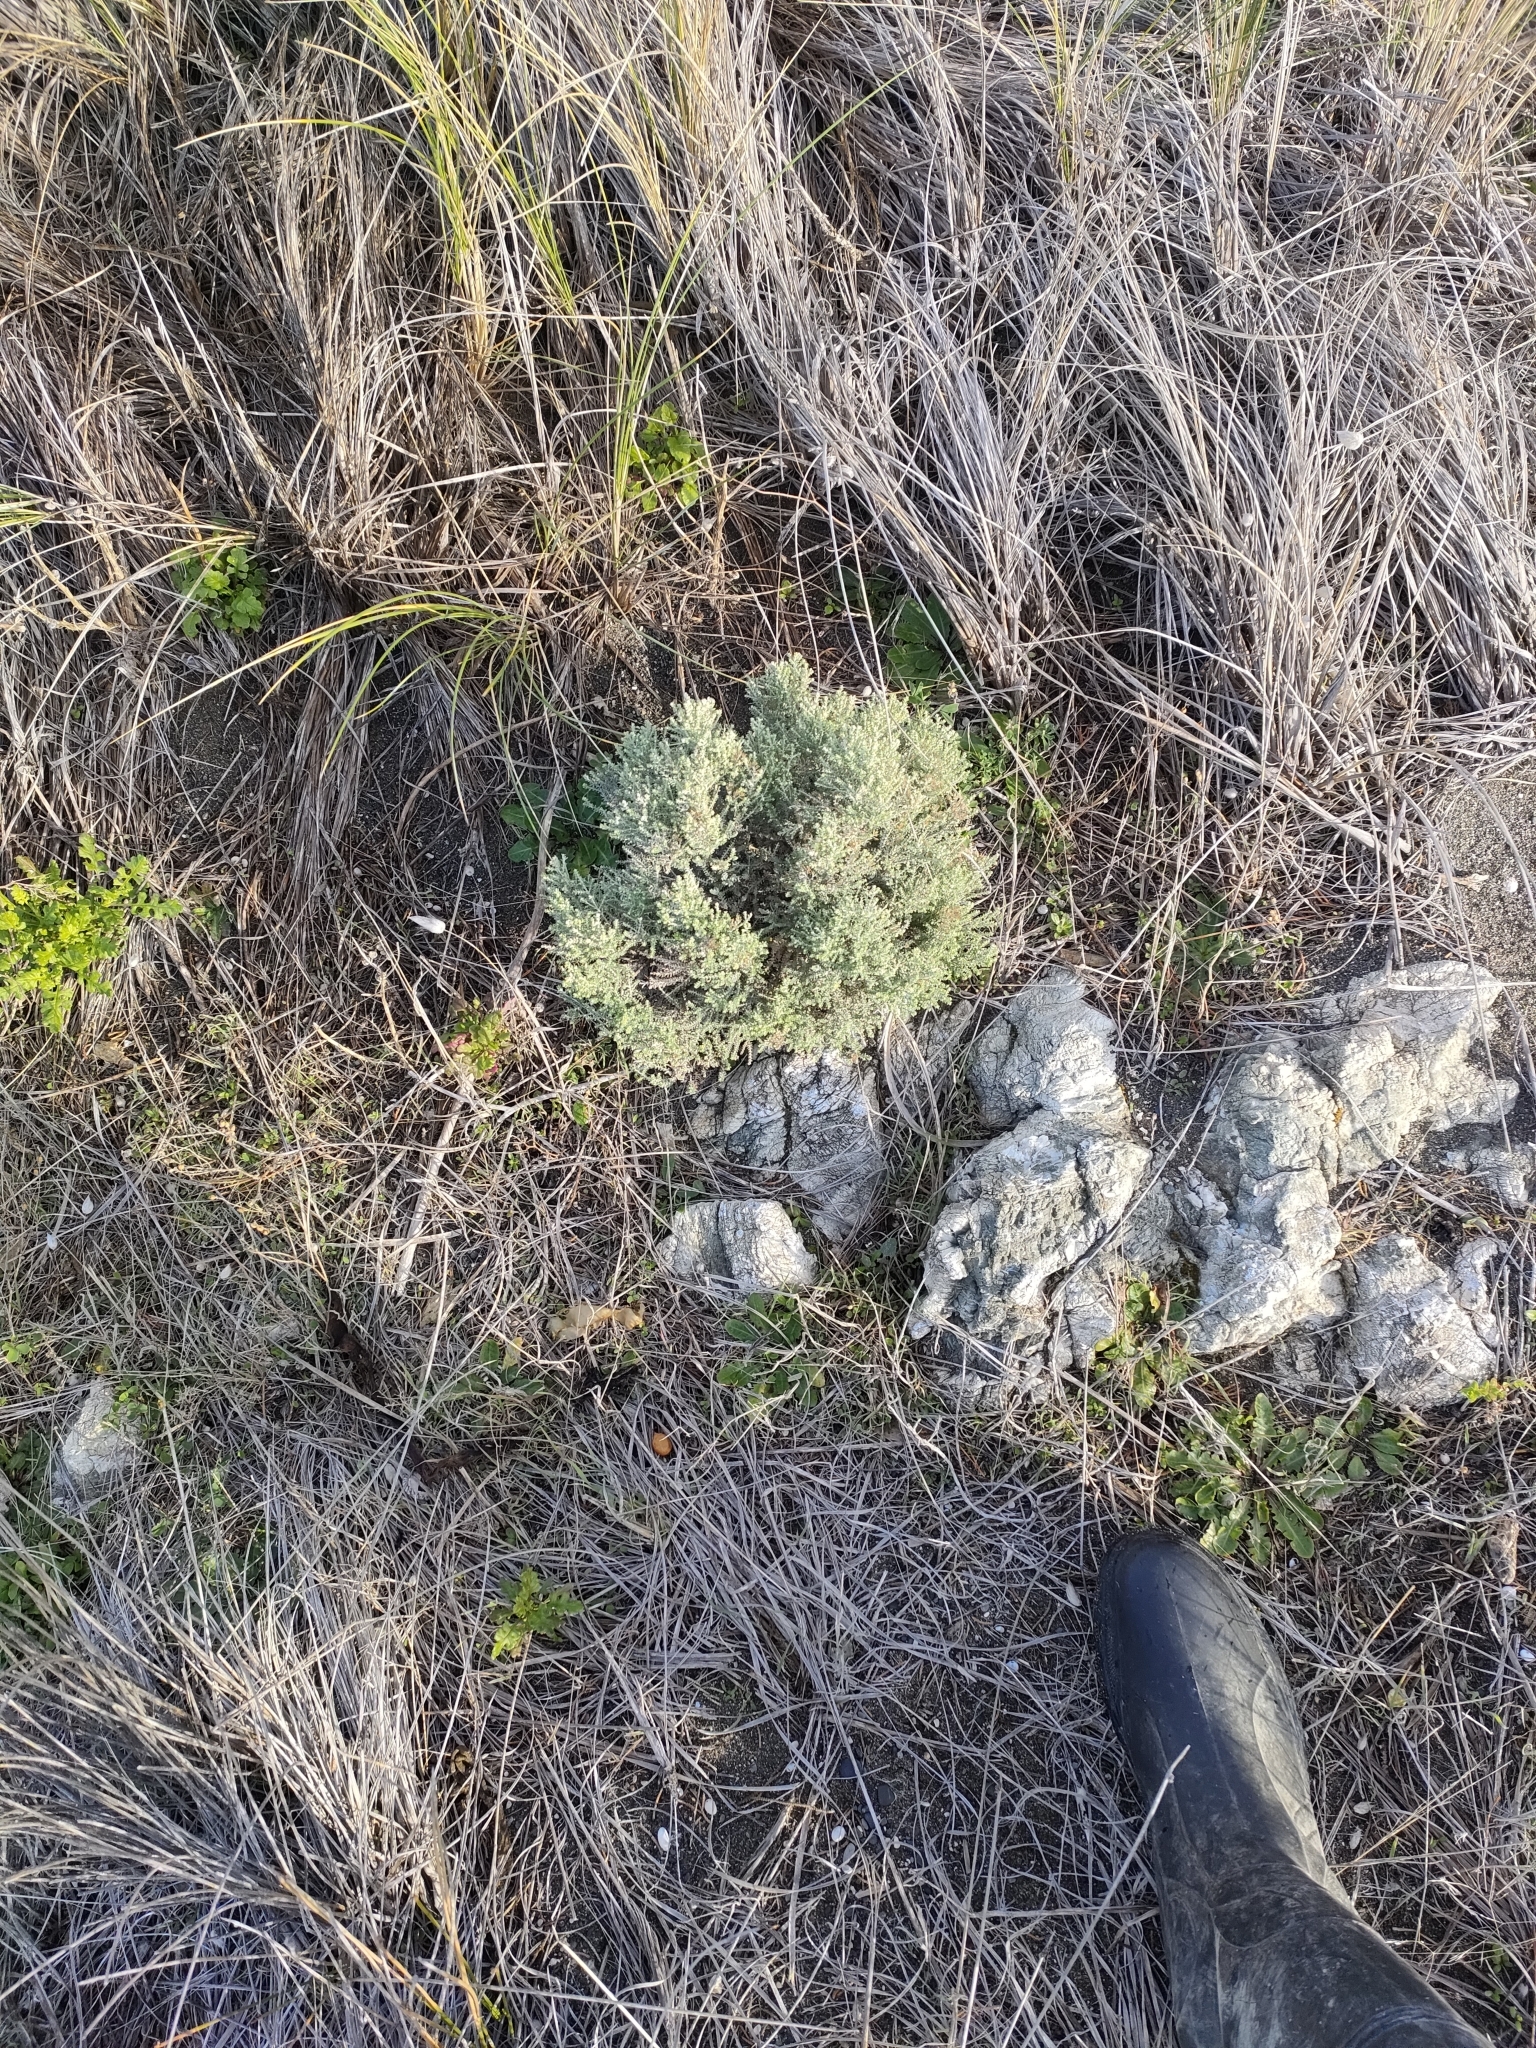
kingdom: Plantae
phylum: Tracheophyta
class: Magnoliopsida
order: Asterales
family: Asteraceae
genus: Ozothamnus
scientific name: Ozothamnus leptophyllus
